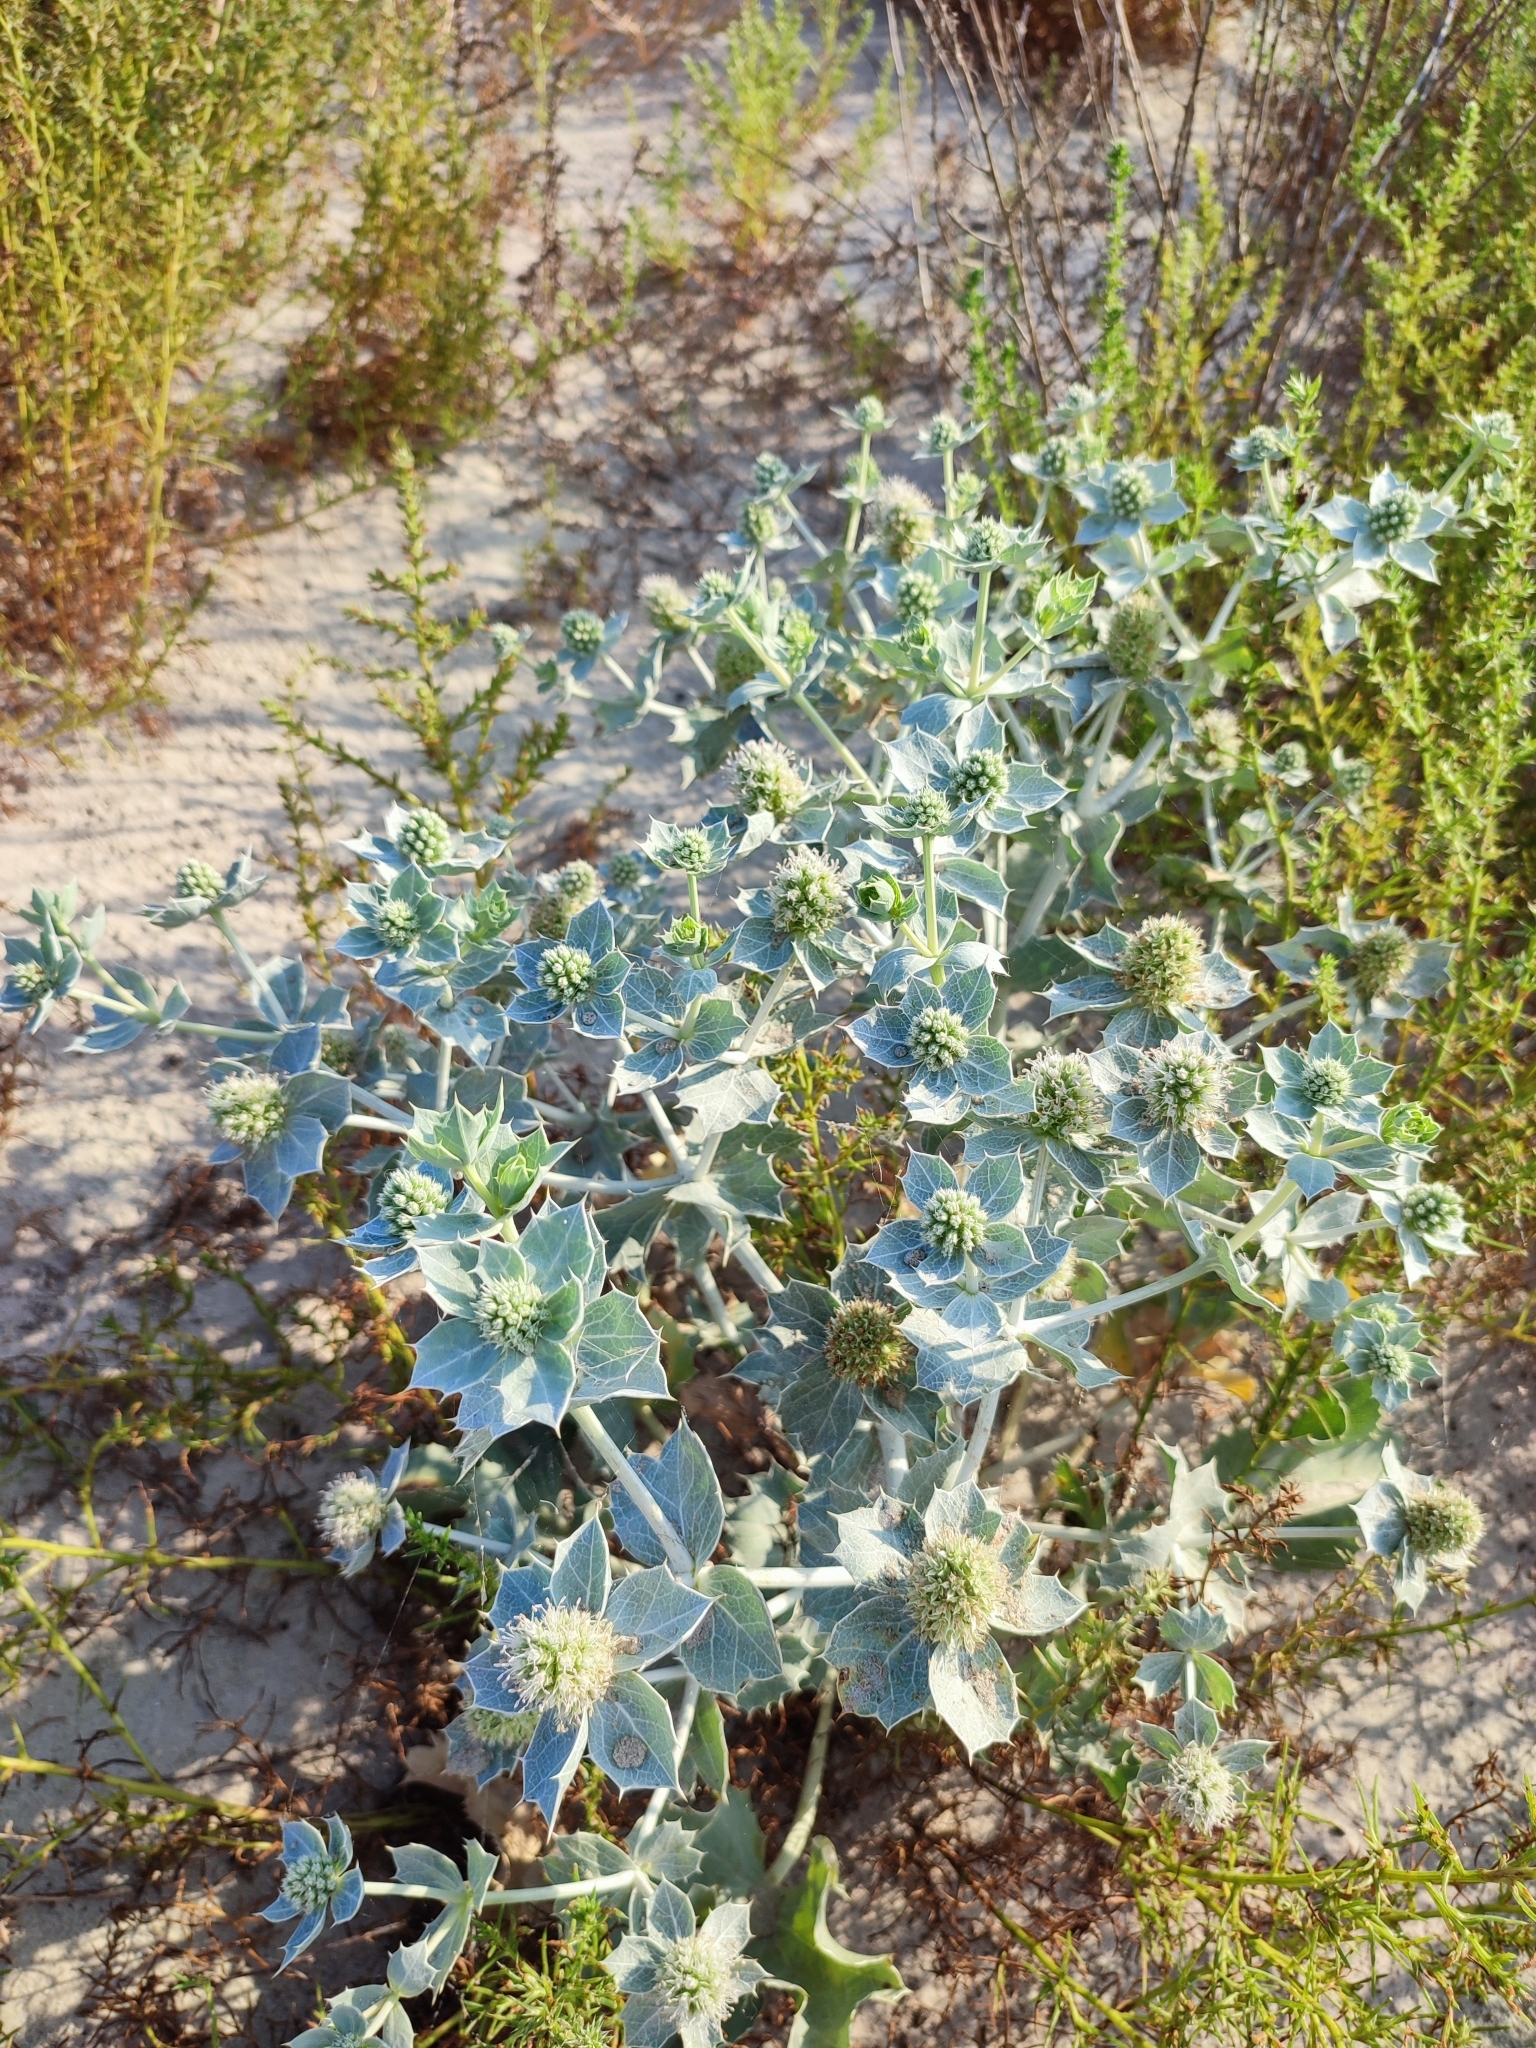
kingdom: Plantae
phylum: Tracheophyta
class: Magnoliopsida
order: Apiales
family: Apiaceae
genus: Eryngium
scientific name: Eryngium maritimum
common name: Sea-holly
